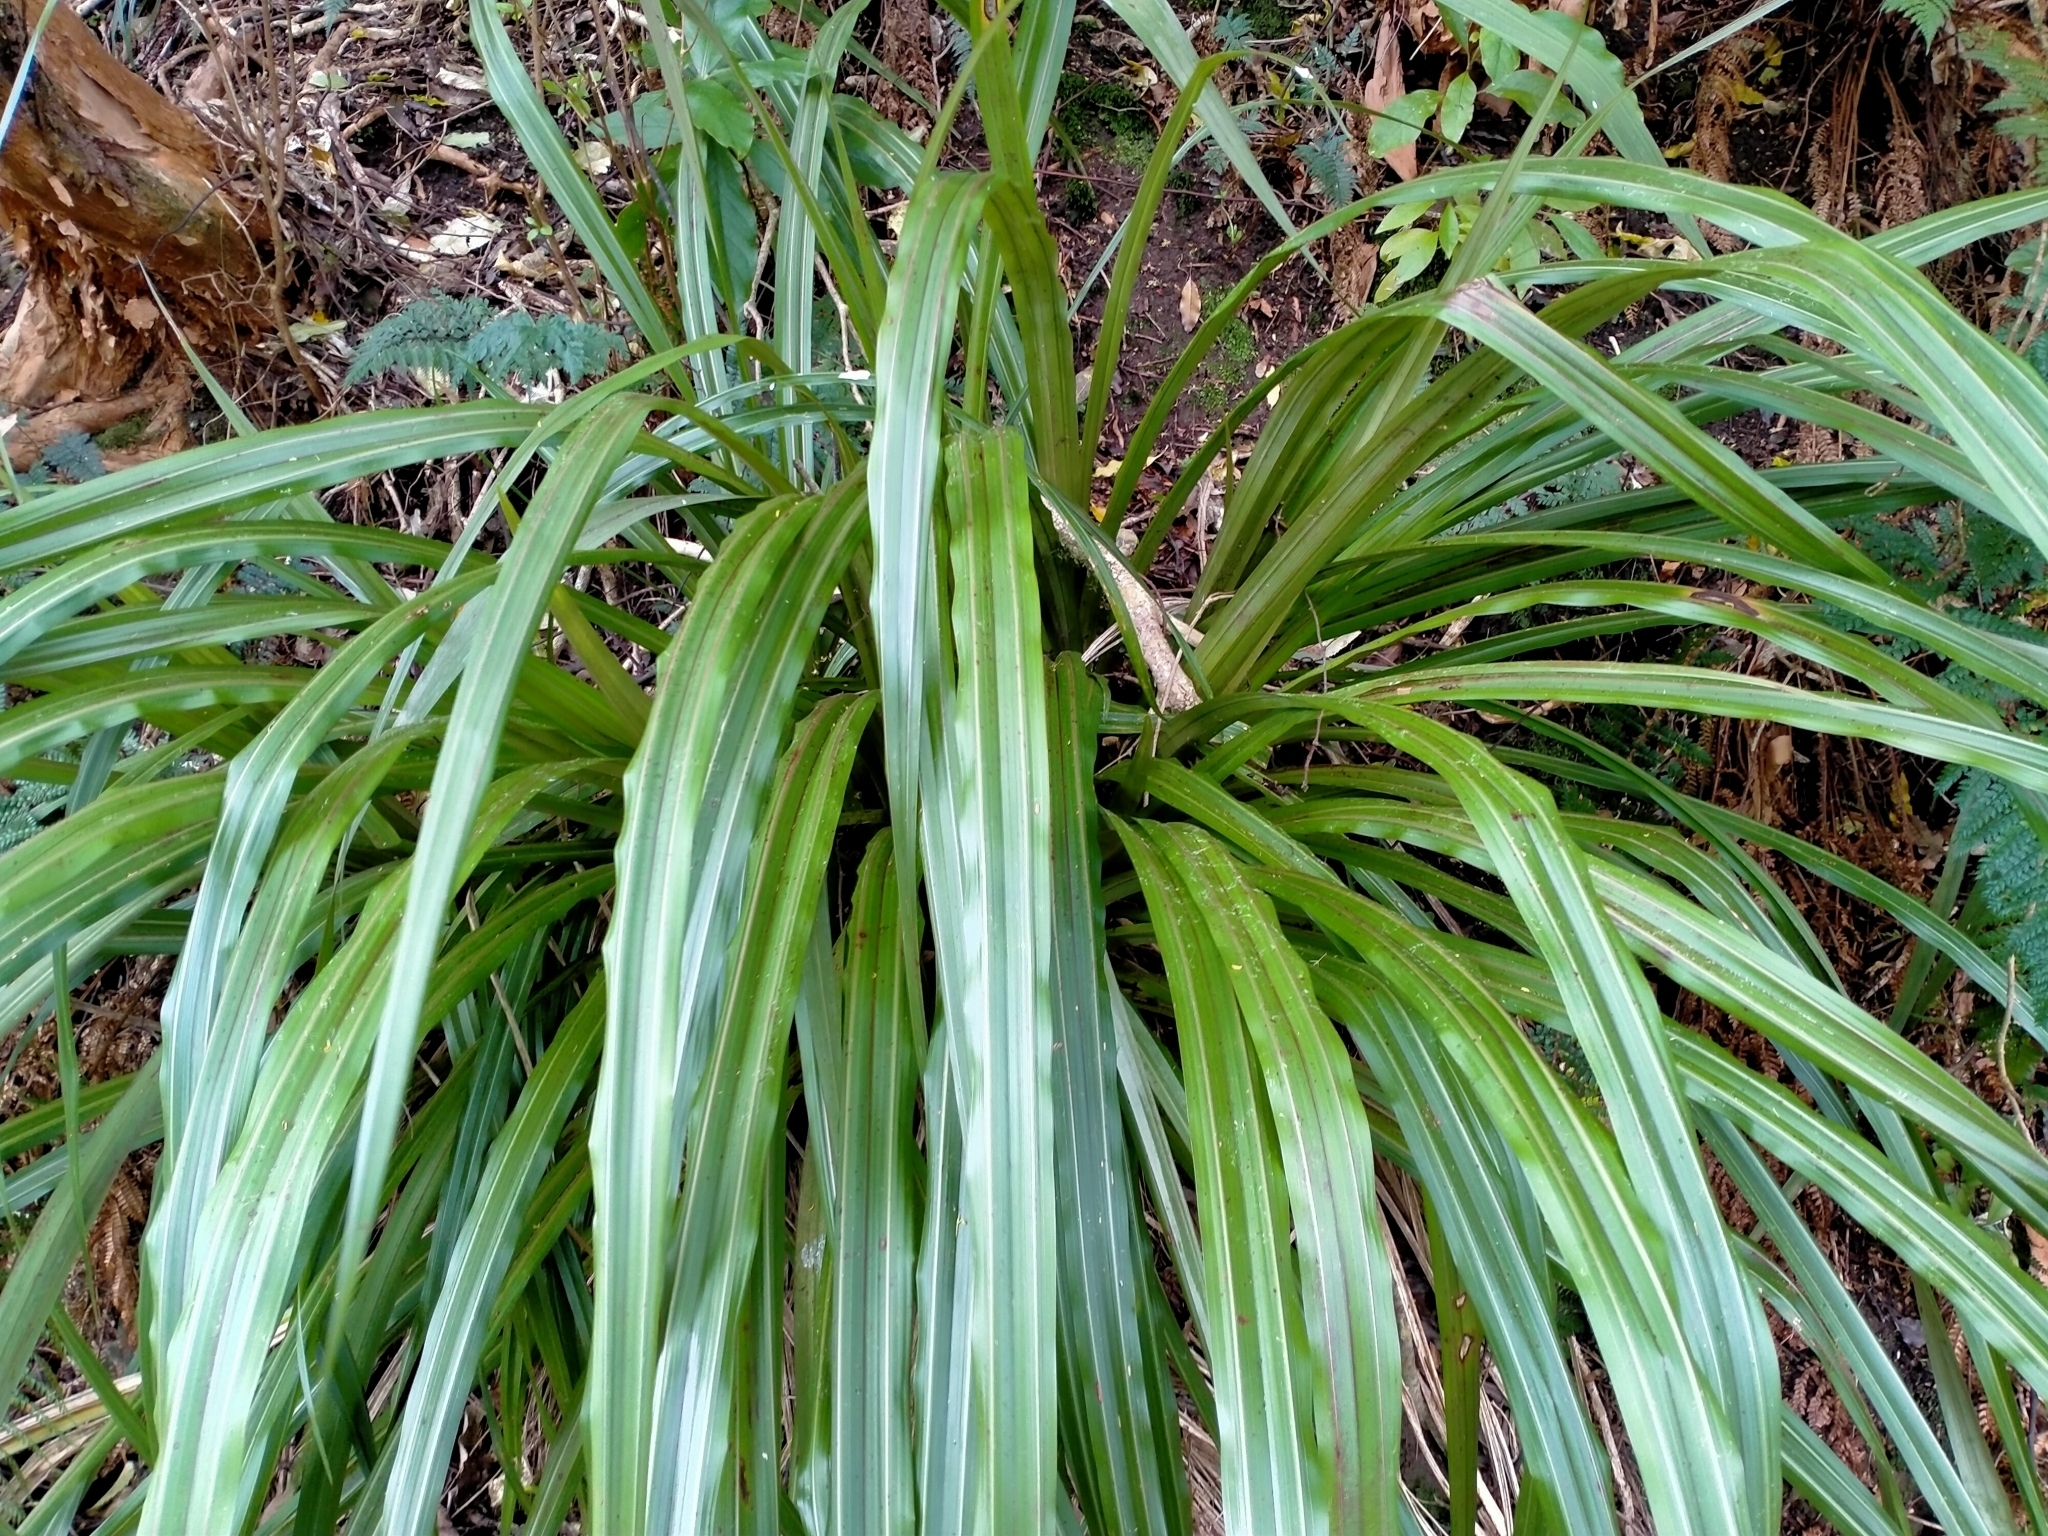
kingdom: Plantae
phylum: Tracheophyta
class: Liliopsida
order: Asparagales
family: Asteliaceae
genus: Astelia
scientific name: Astelia fragrans
